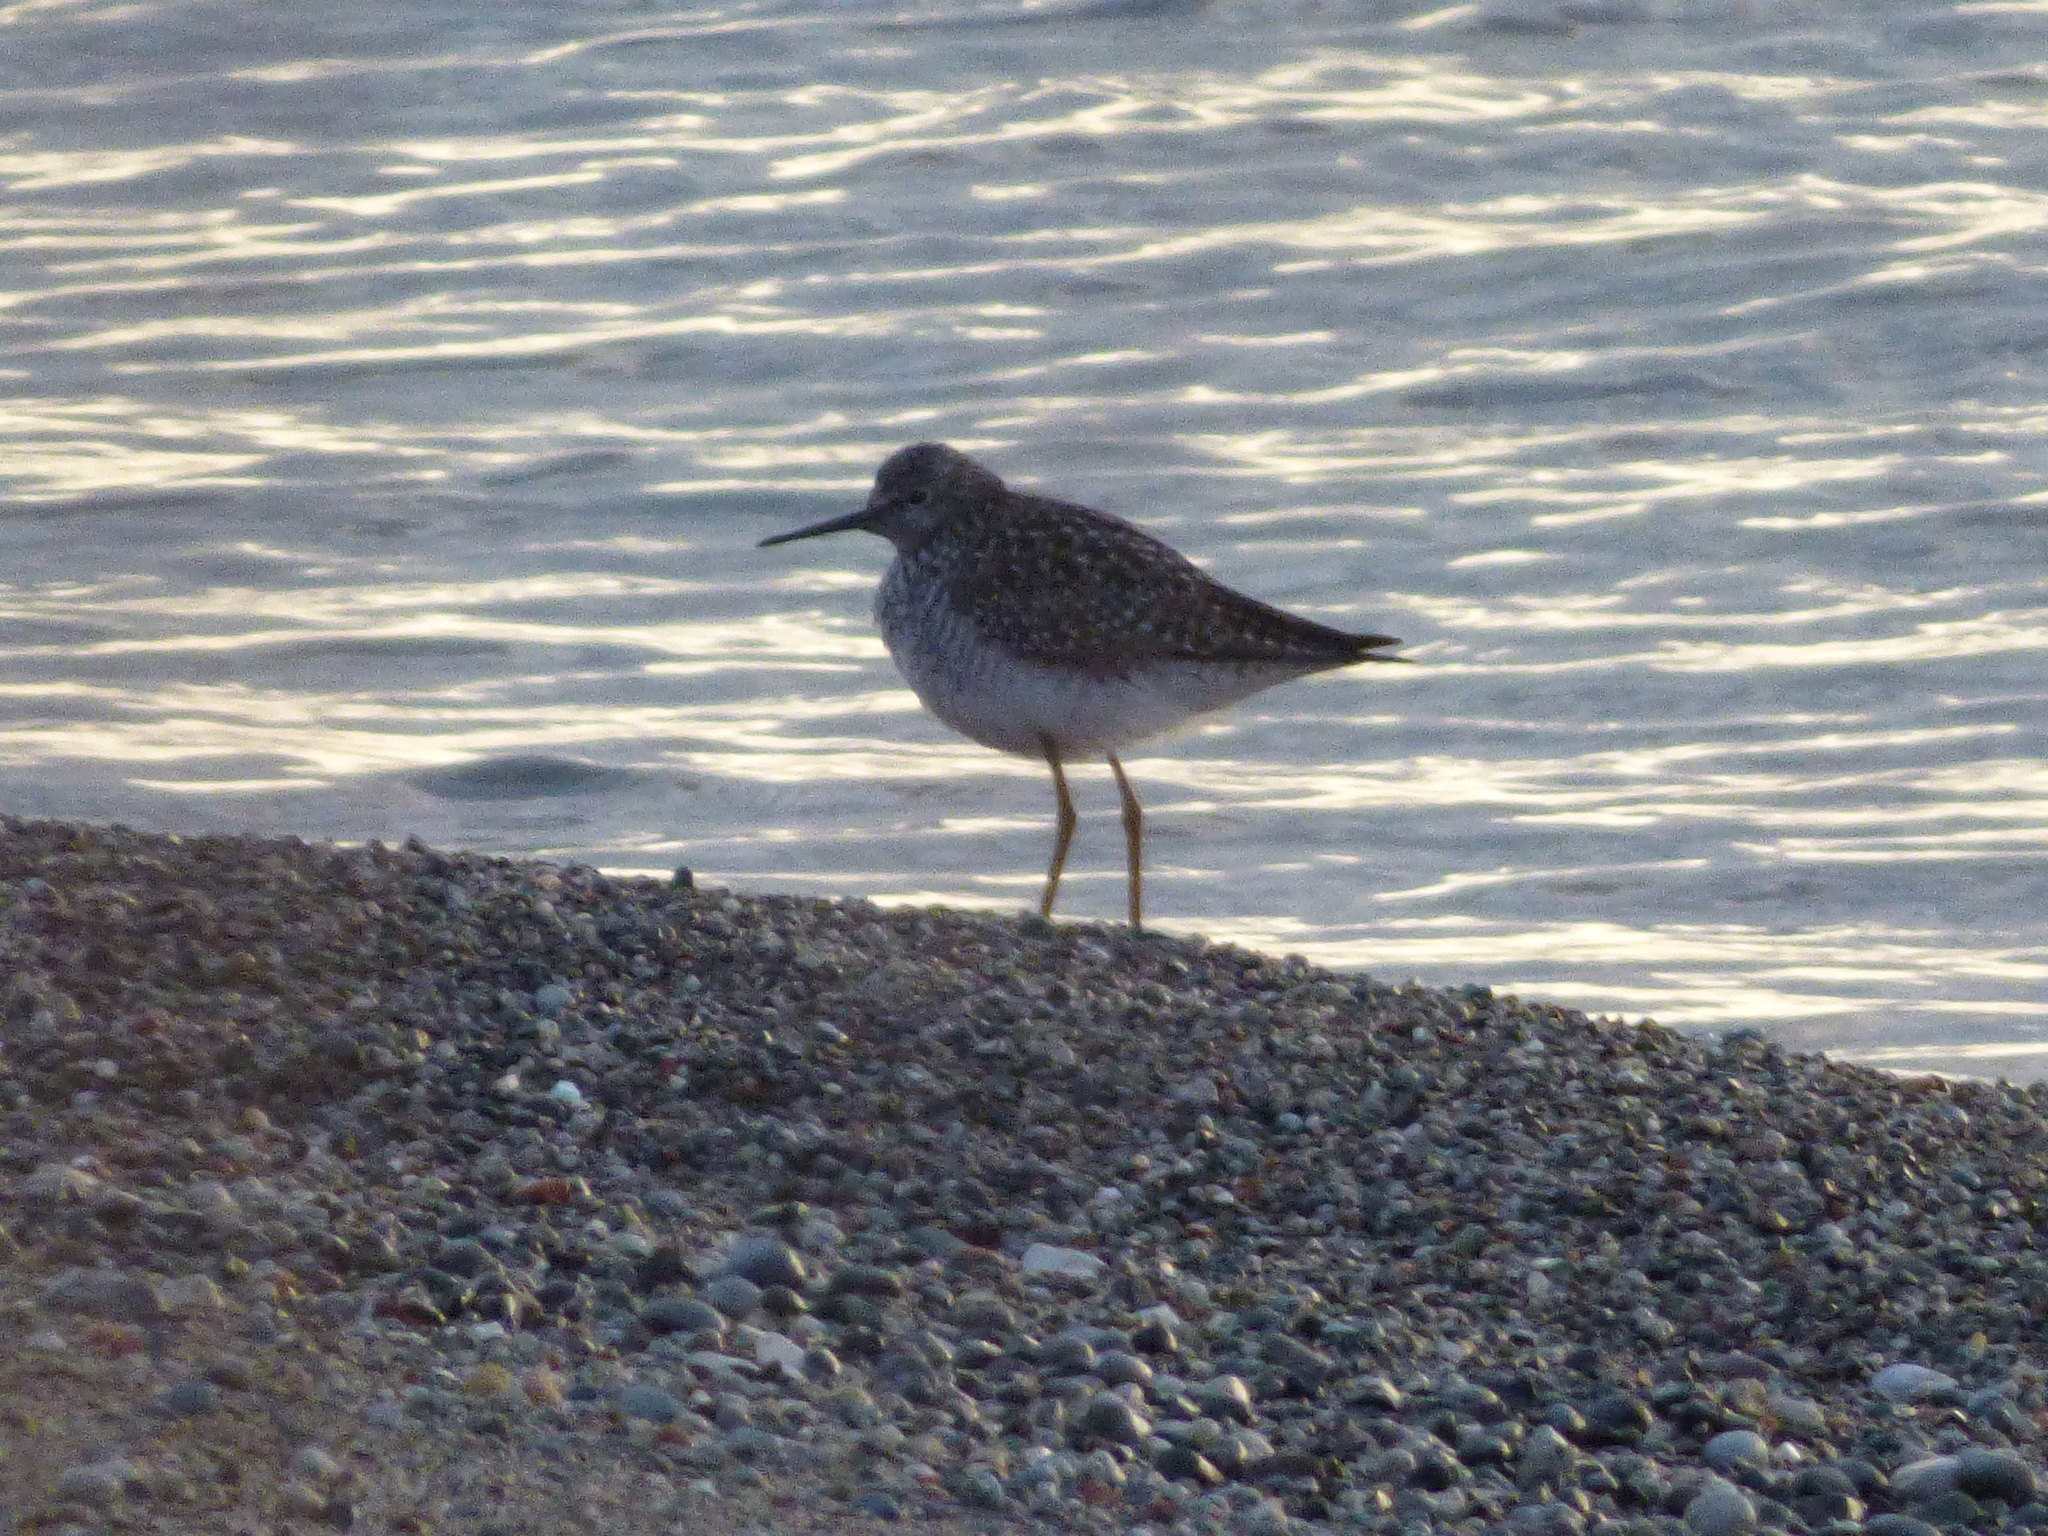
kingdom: Animalia
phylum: Chordata
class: Aves
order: Charadriiformes
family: Scolopacidae
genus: Tringa
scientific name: Tringa flavipes
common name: Lesser yellowlegs
